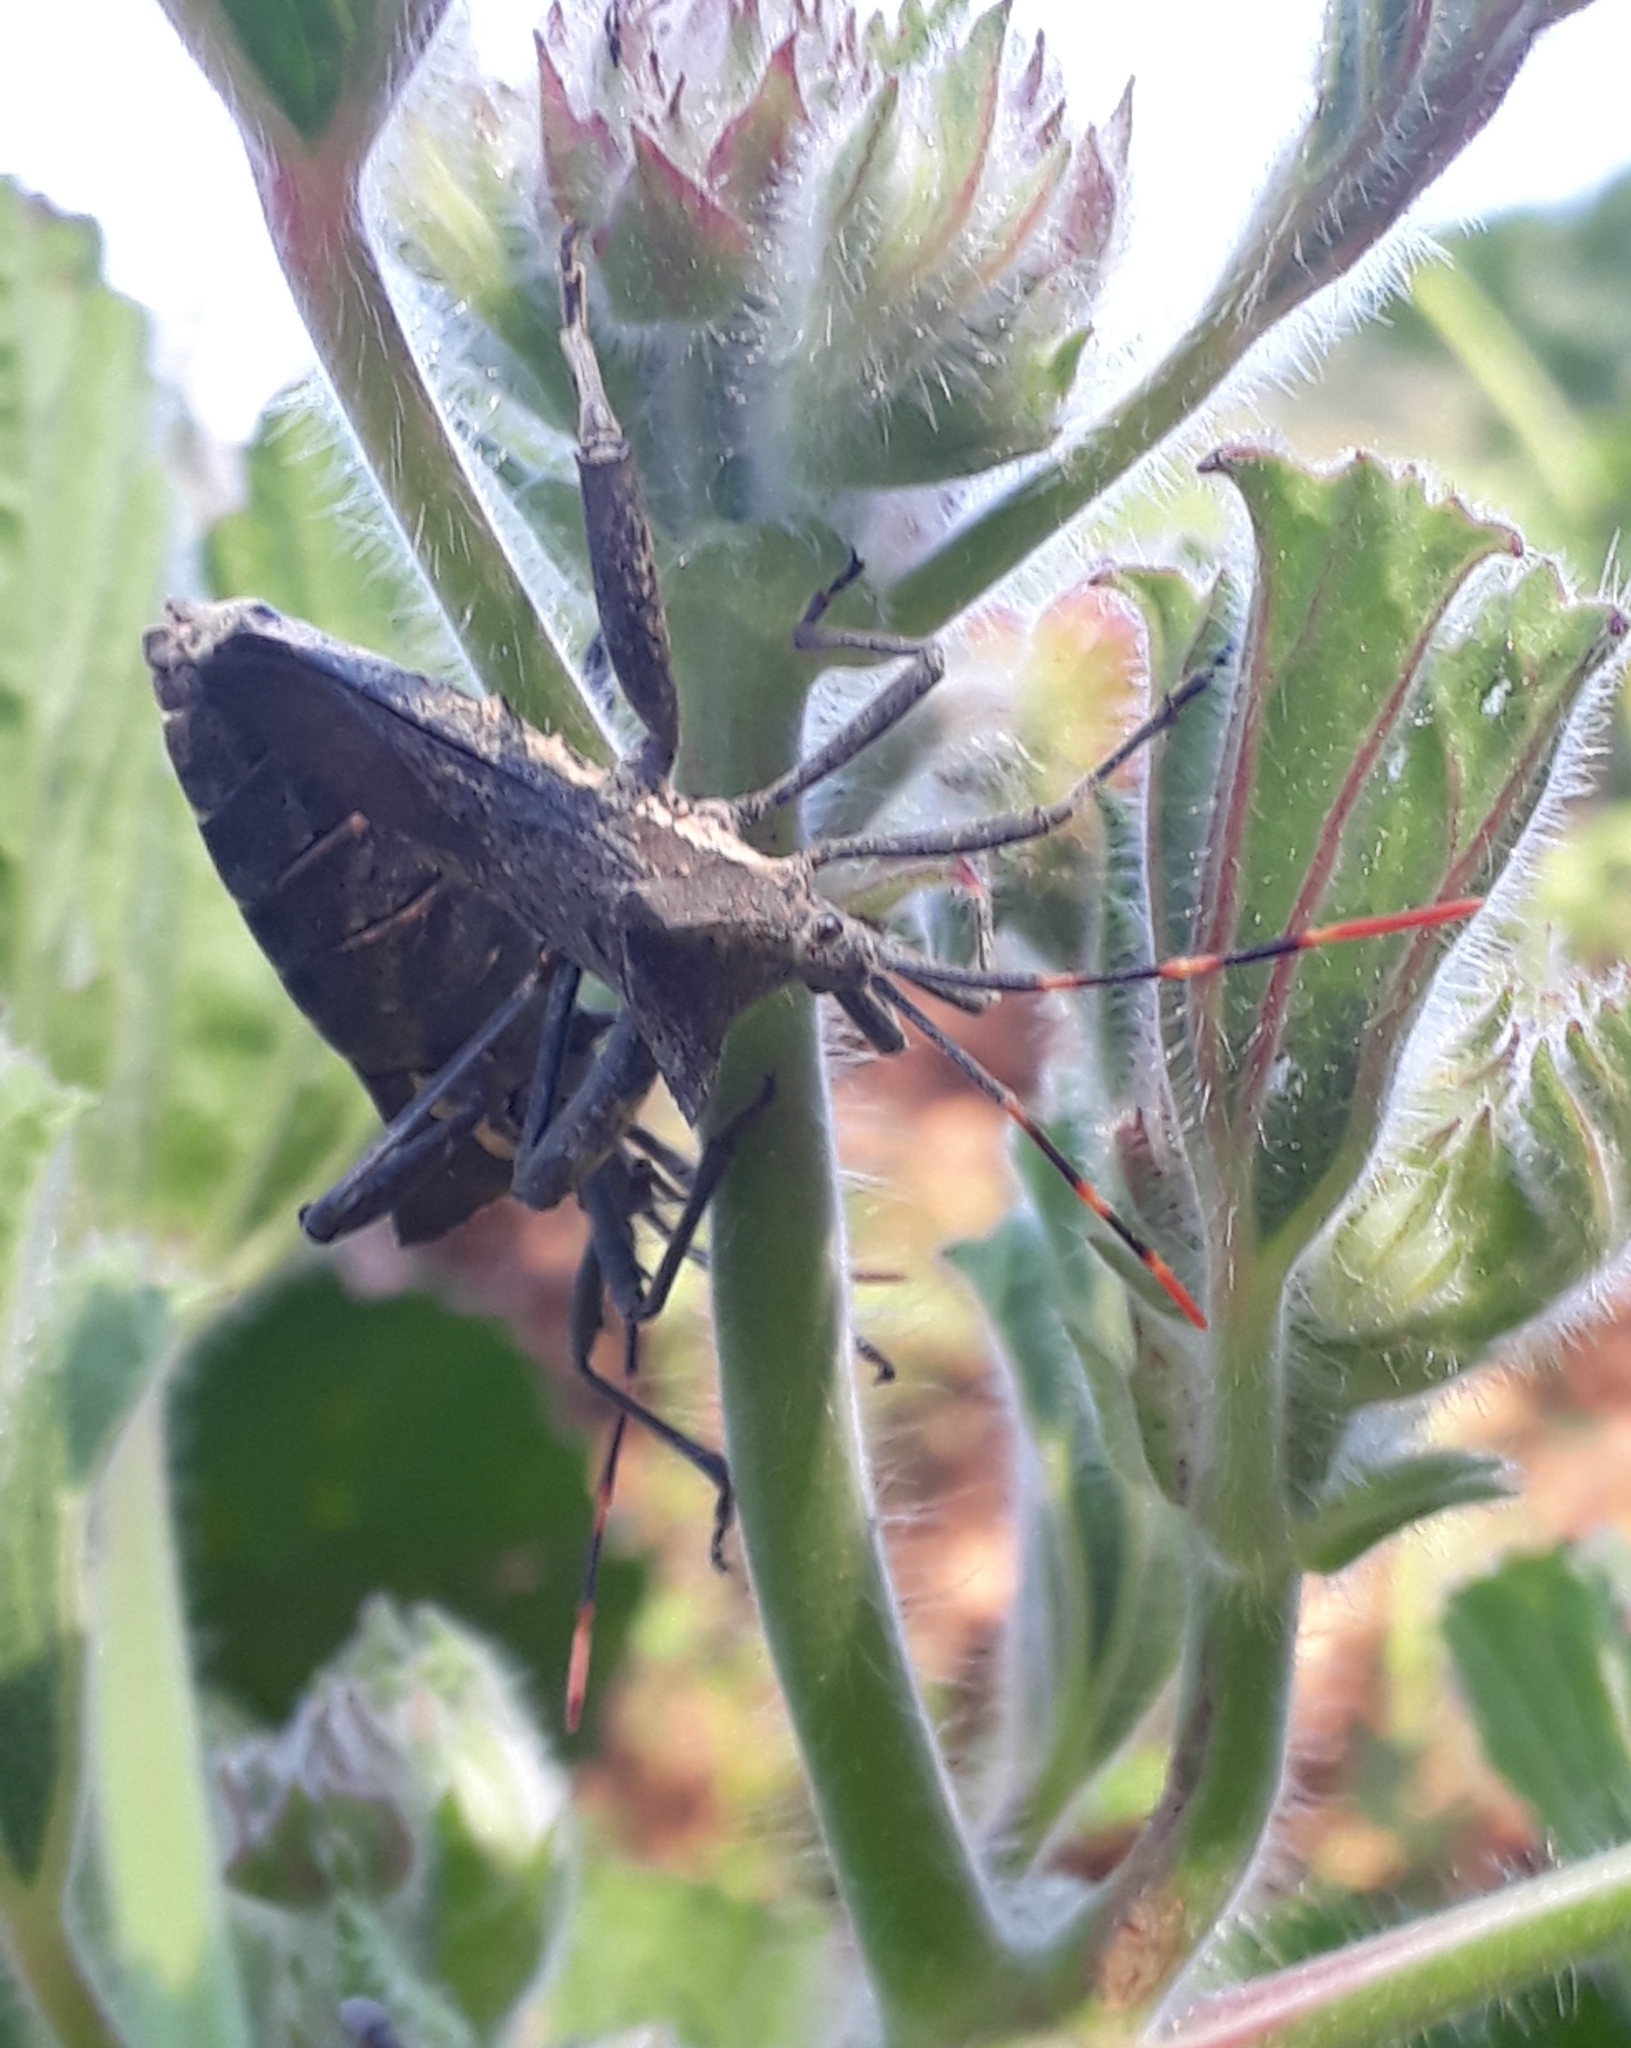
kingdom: Animalia
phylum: Arthropoda
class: Insecta
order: Hemiptera
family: Coreidae
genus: Elasmopoda
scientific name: Elasmopoda valga
